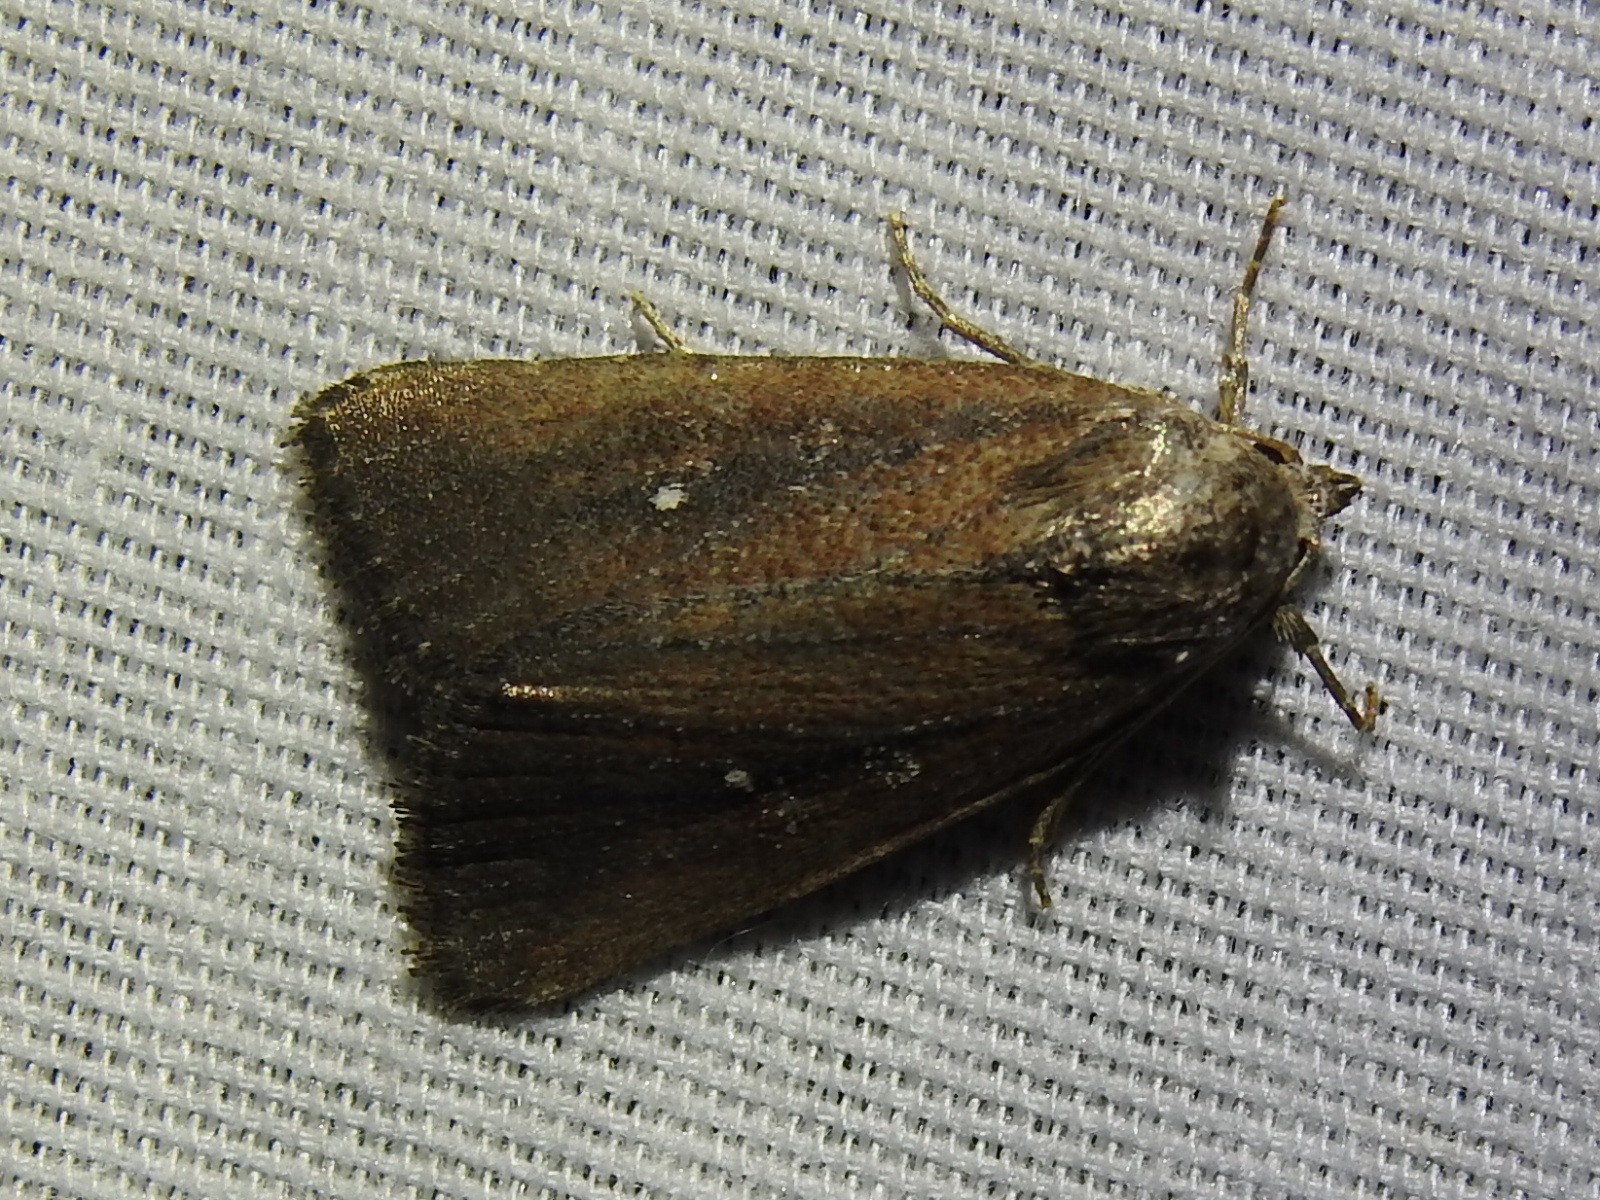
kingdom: Animalia
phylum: Arthropoda
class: Insecta
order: Lepidoptera
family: Noctuidae
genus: Condica
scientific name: Condica videns
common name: White-dotted groundling
